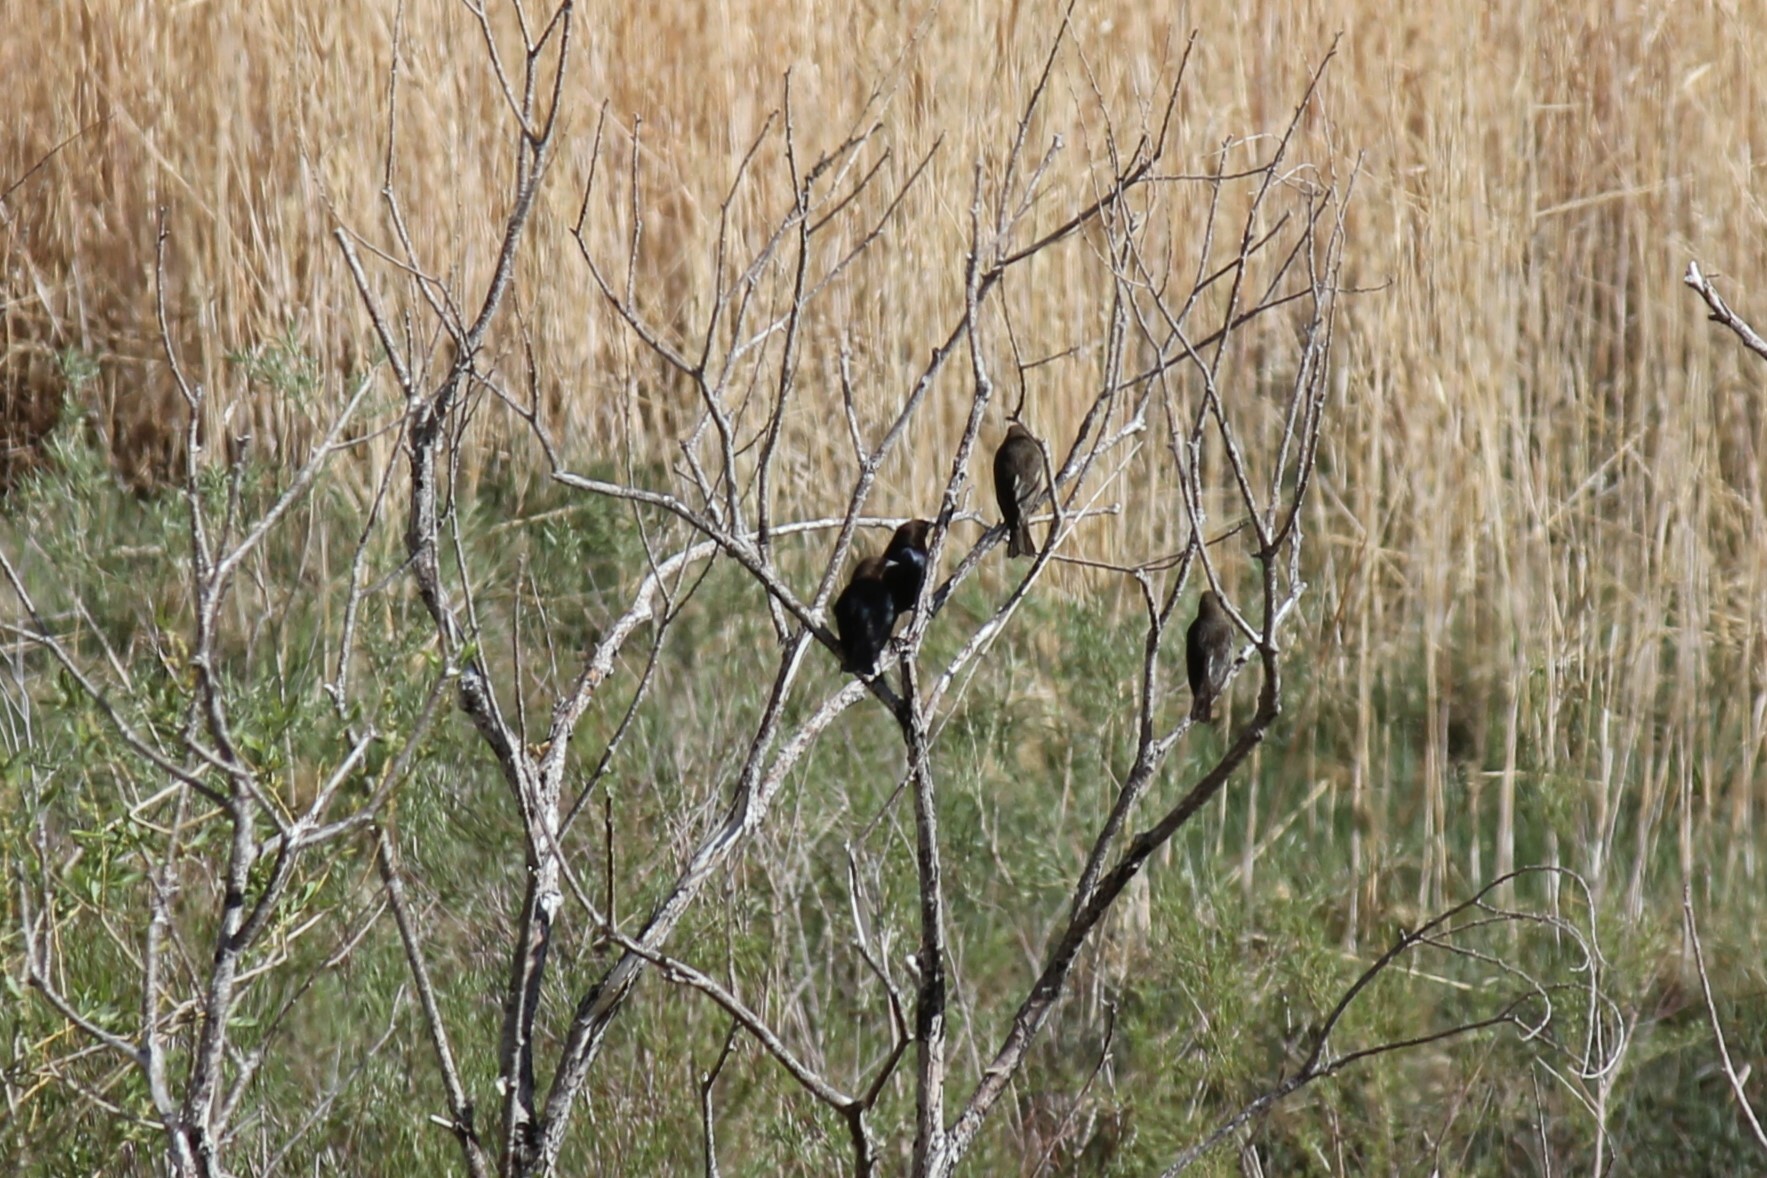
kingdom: Animalia
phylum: Chordata
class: Aves
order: Passeriformes
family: Icteridae
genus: Molothrus
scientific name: Molothrus ater
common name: Brown-headed cowbird
